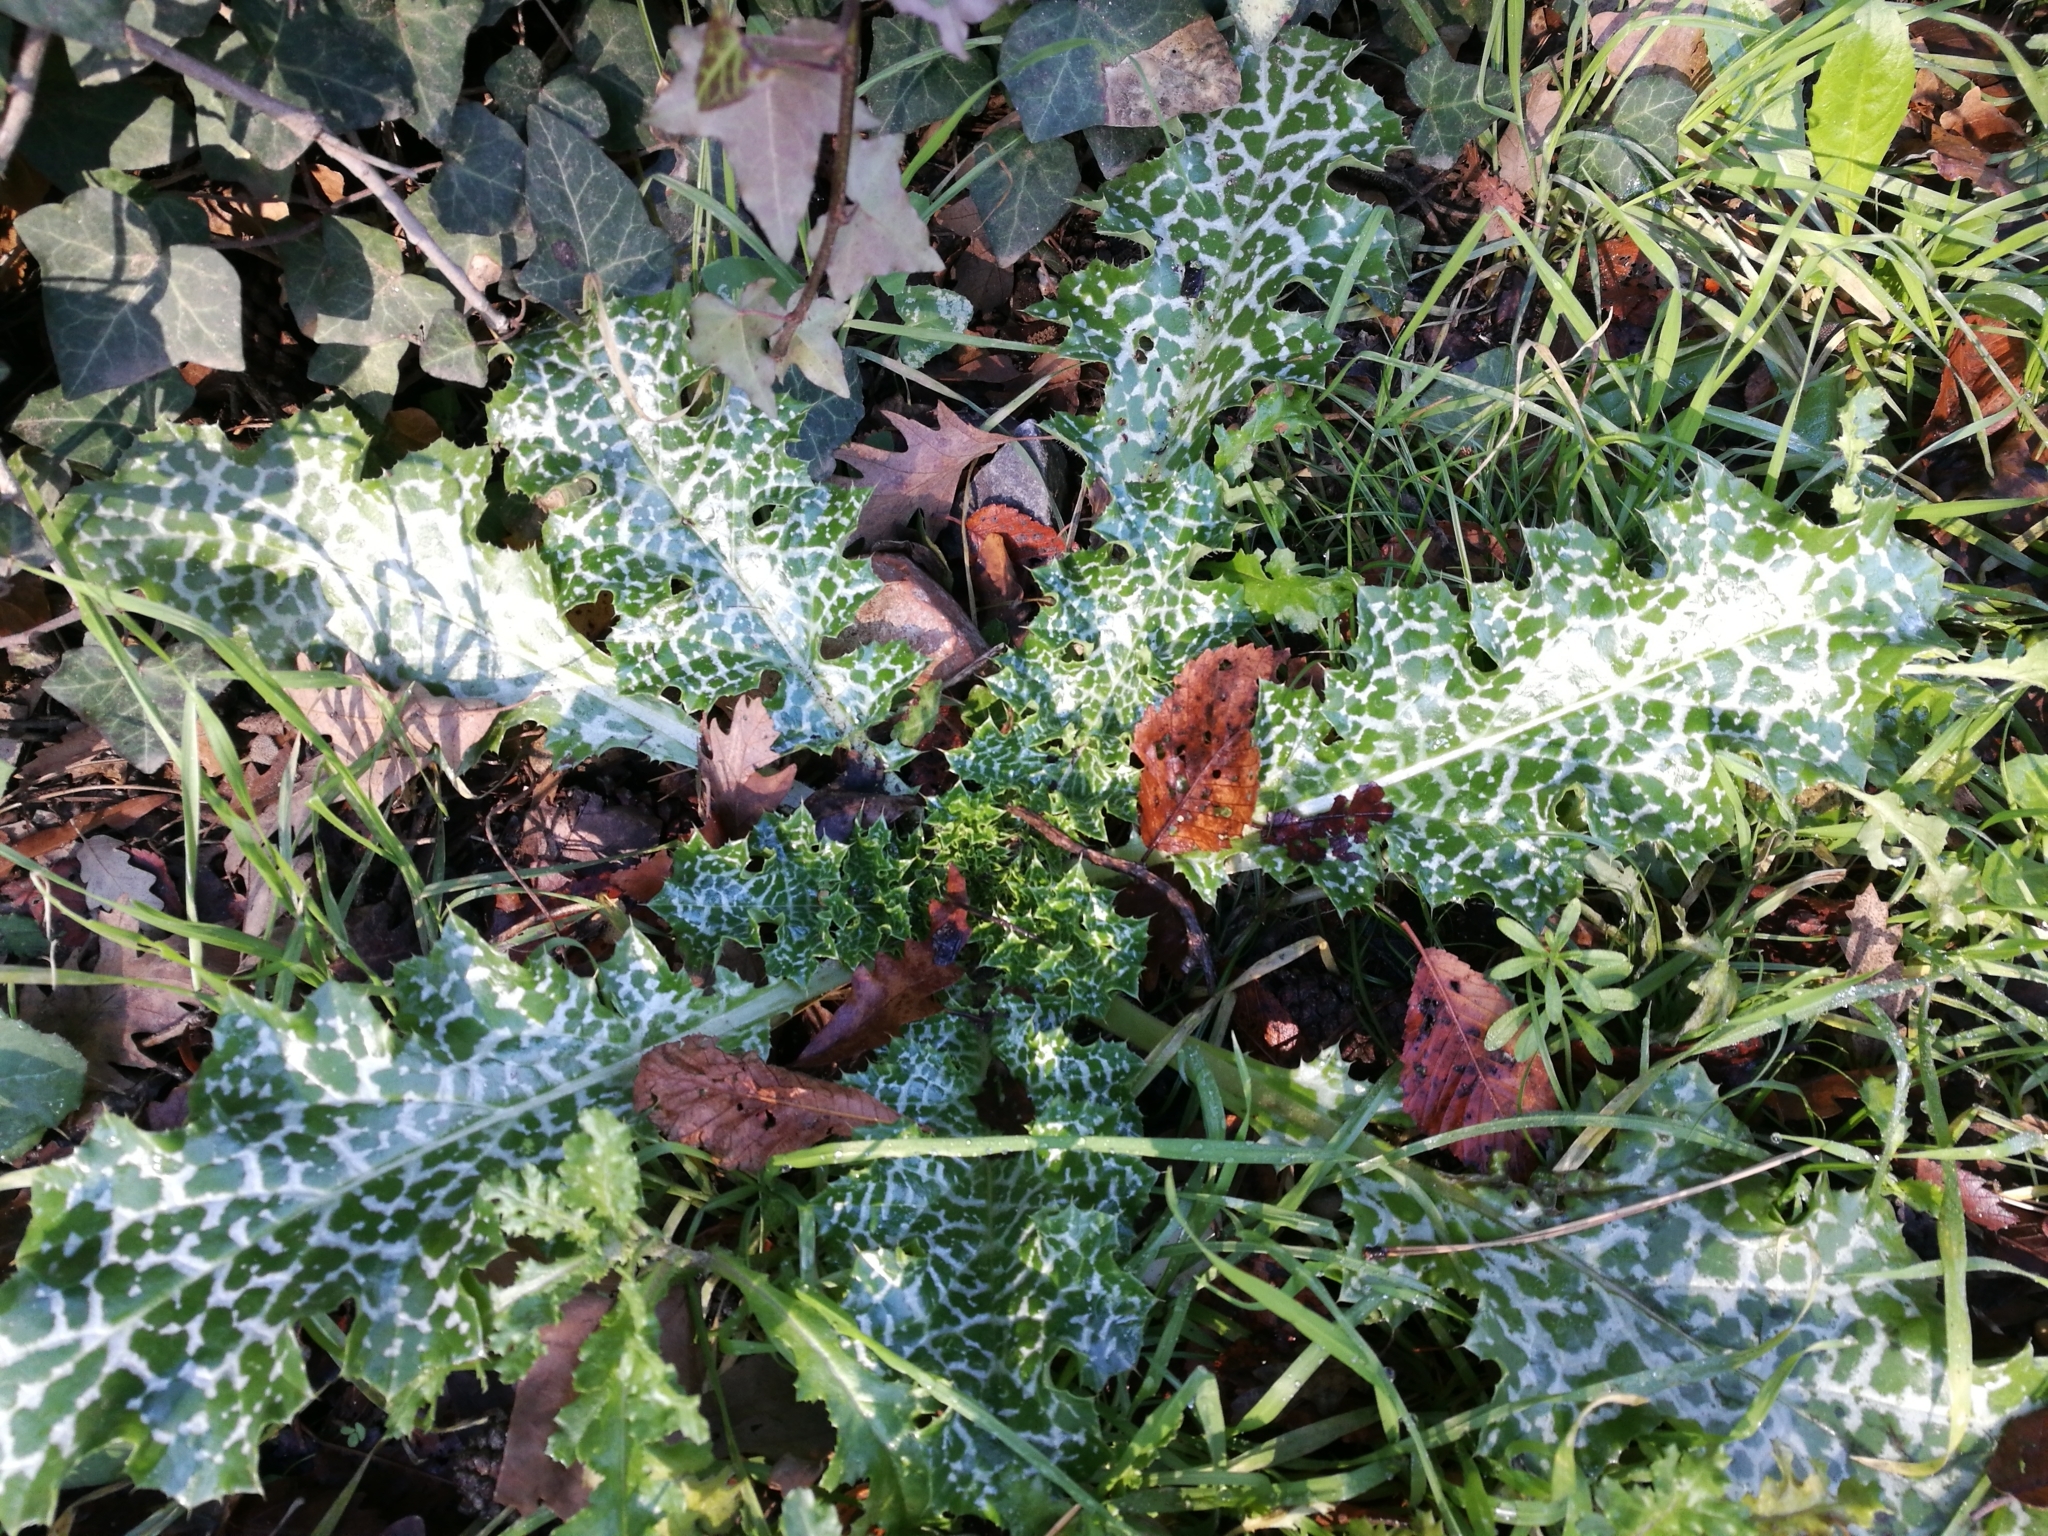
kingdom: Plantae
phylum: Tracheophyta
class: Magnoliopsida
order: Asterales
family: Asteraceae
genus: Silybum
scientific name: Silybum marianum
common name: Milk thistle
